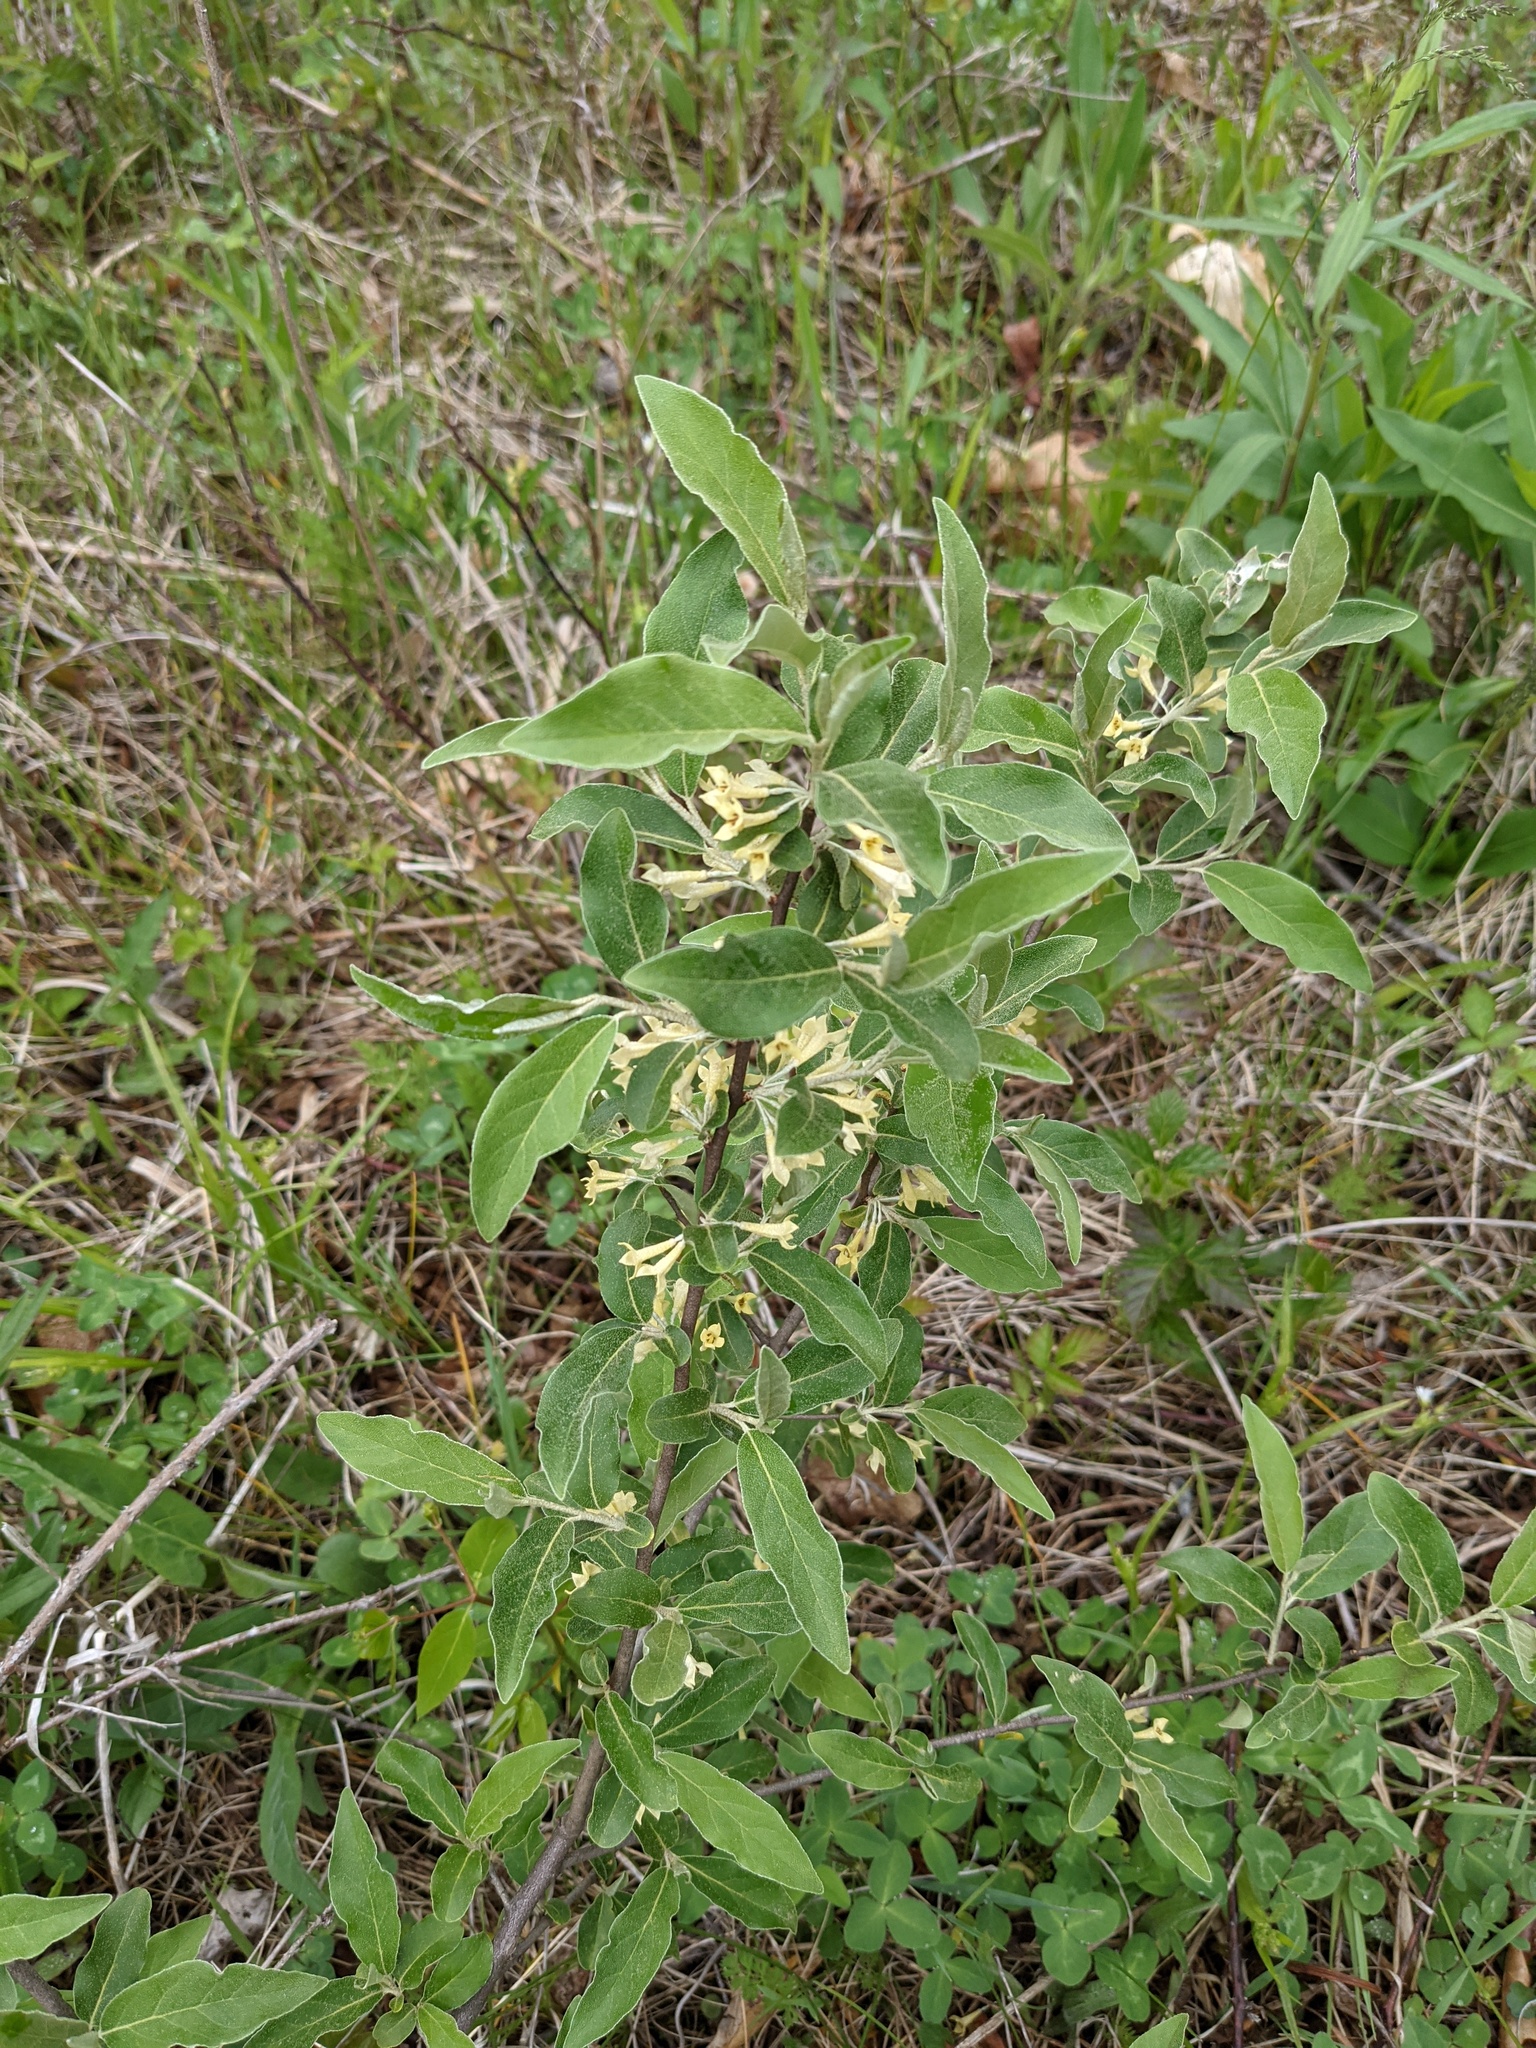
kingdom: Plantae
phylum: Tracheophyta
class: Magnoliopsida
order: Rosales
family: Elaeagnaceae
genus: Elaeagnus
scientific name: Elaeagnus umbellata
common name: Autumn olive
